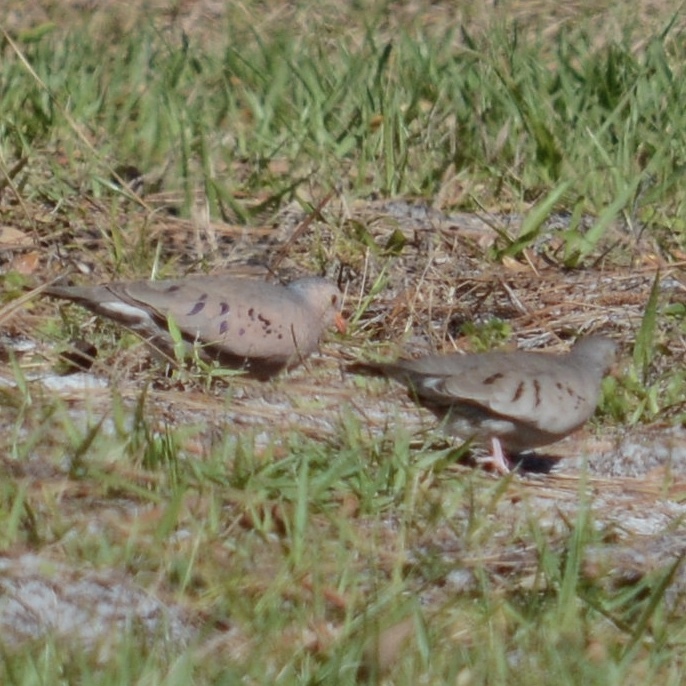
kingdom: Animalia
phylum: Chordata
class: Aves
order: Columbiformes
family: Columbidae
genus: Columbina
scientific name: Columbina passerina
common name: Common ground-dove
